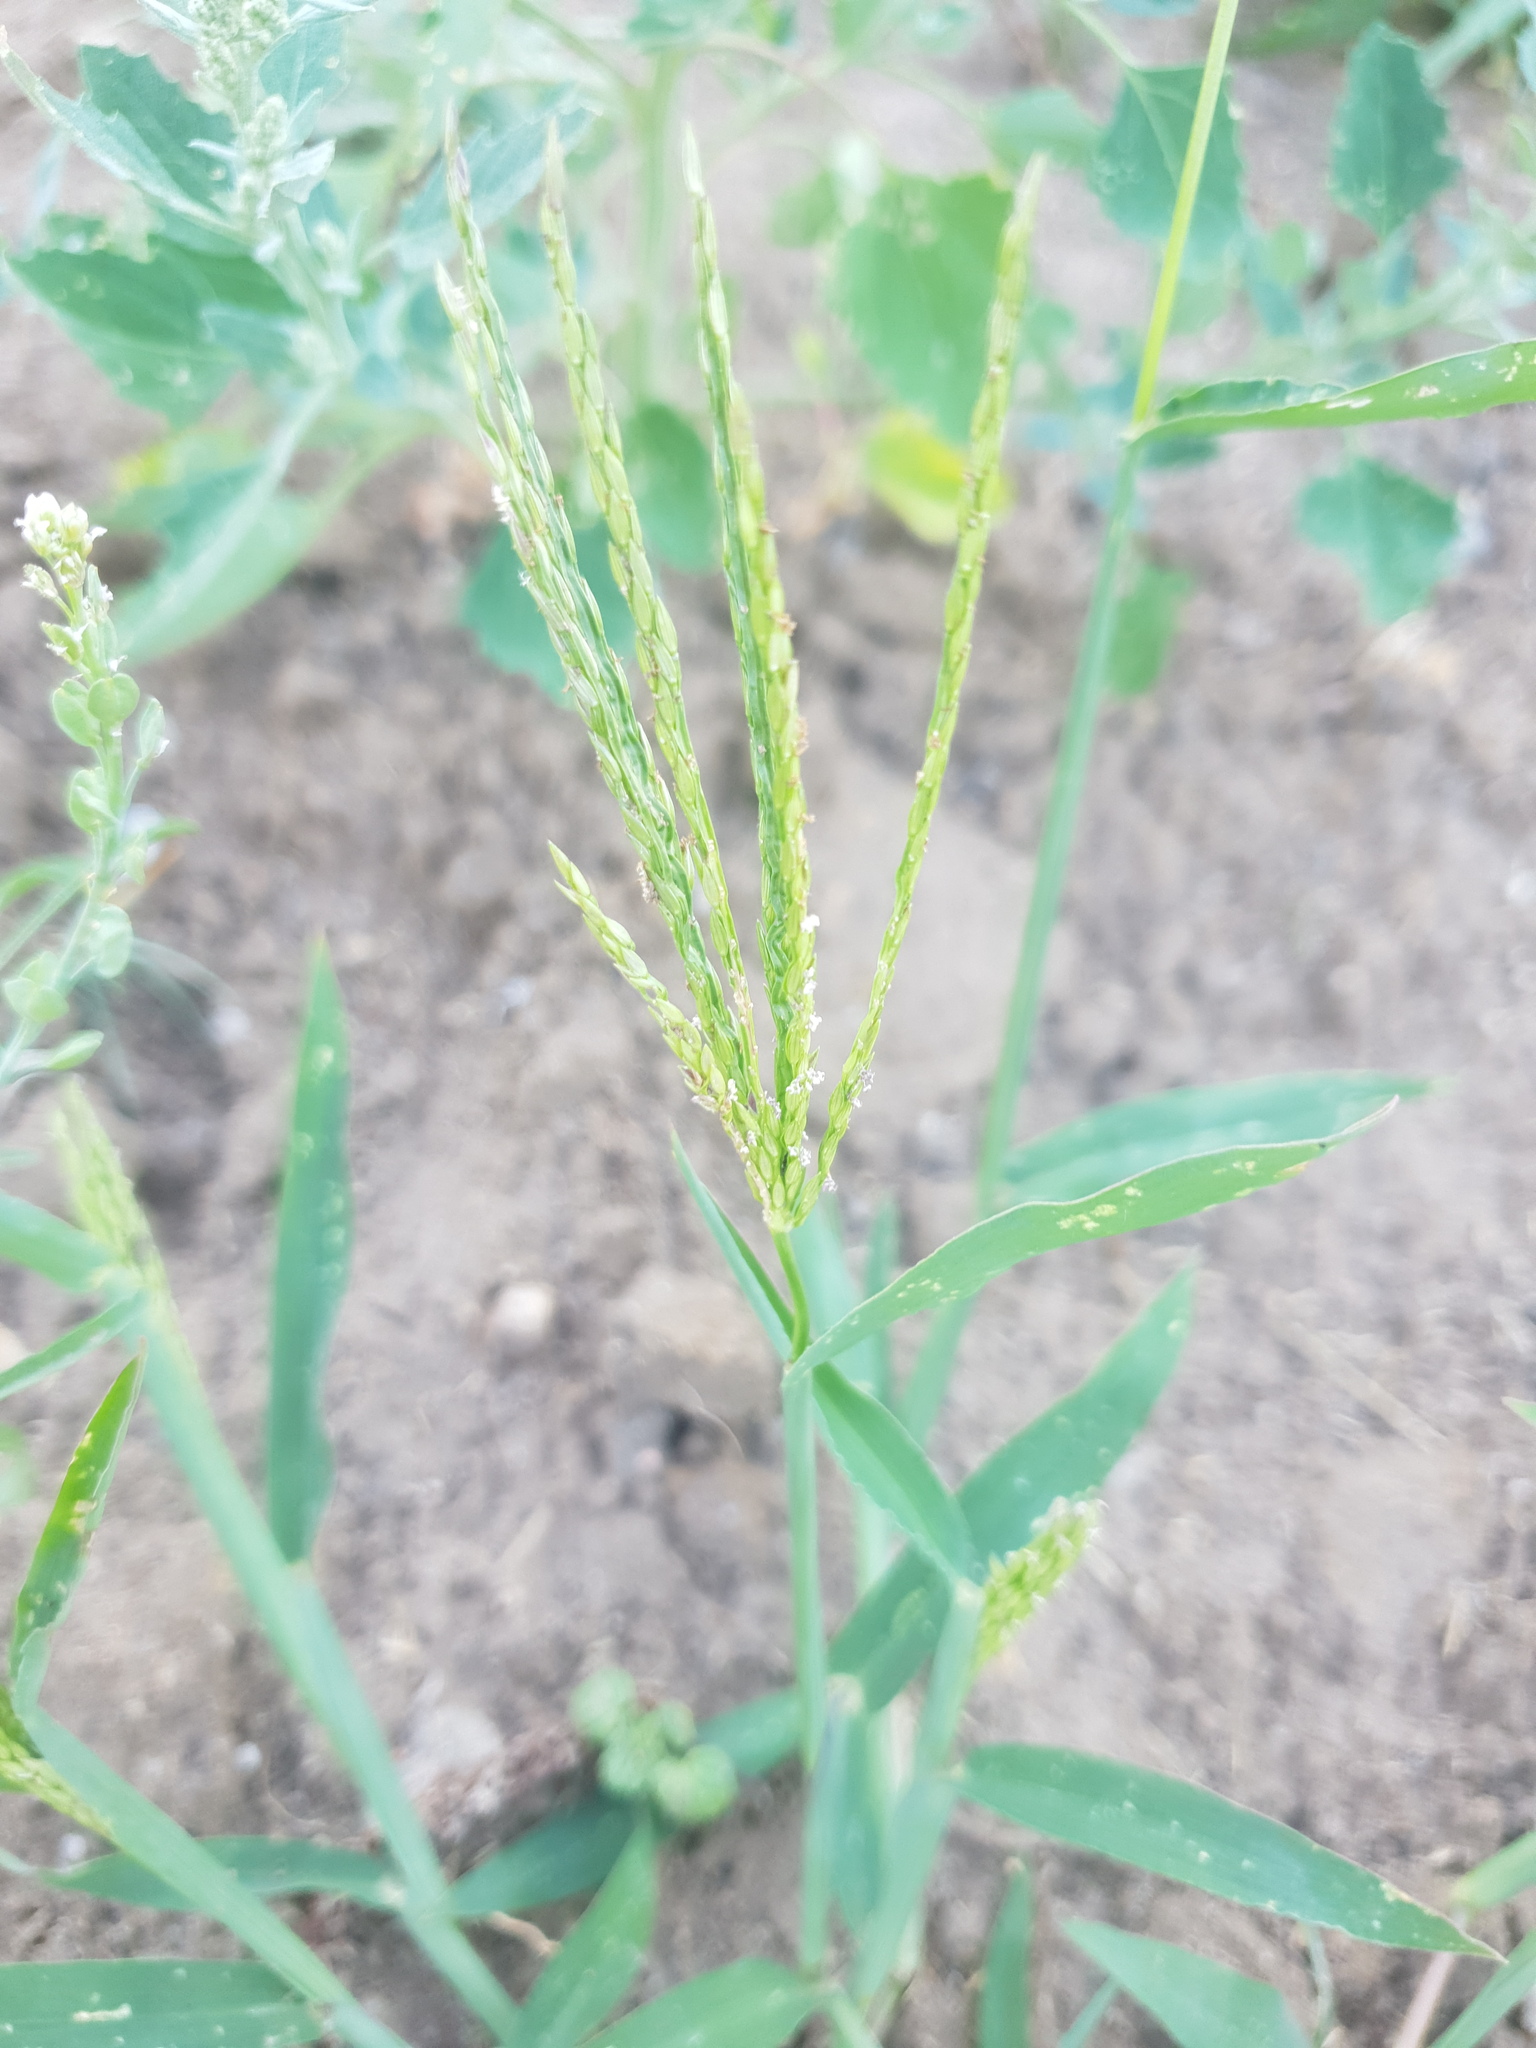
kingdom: Plantae
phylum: Tracheophyta
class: Liliopsida
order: Poales
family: Poaceae
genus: Digitaria
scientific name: Digitaria sanguinalis
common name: Hairy crabgrass
